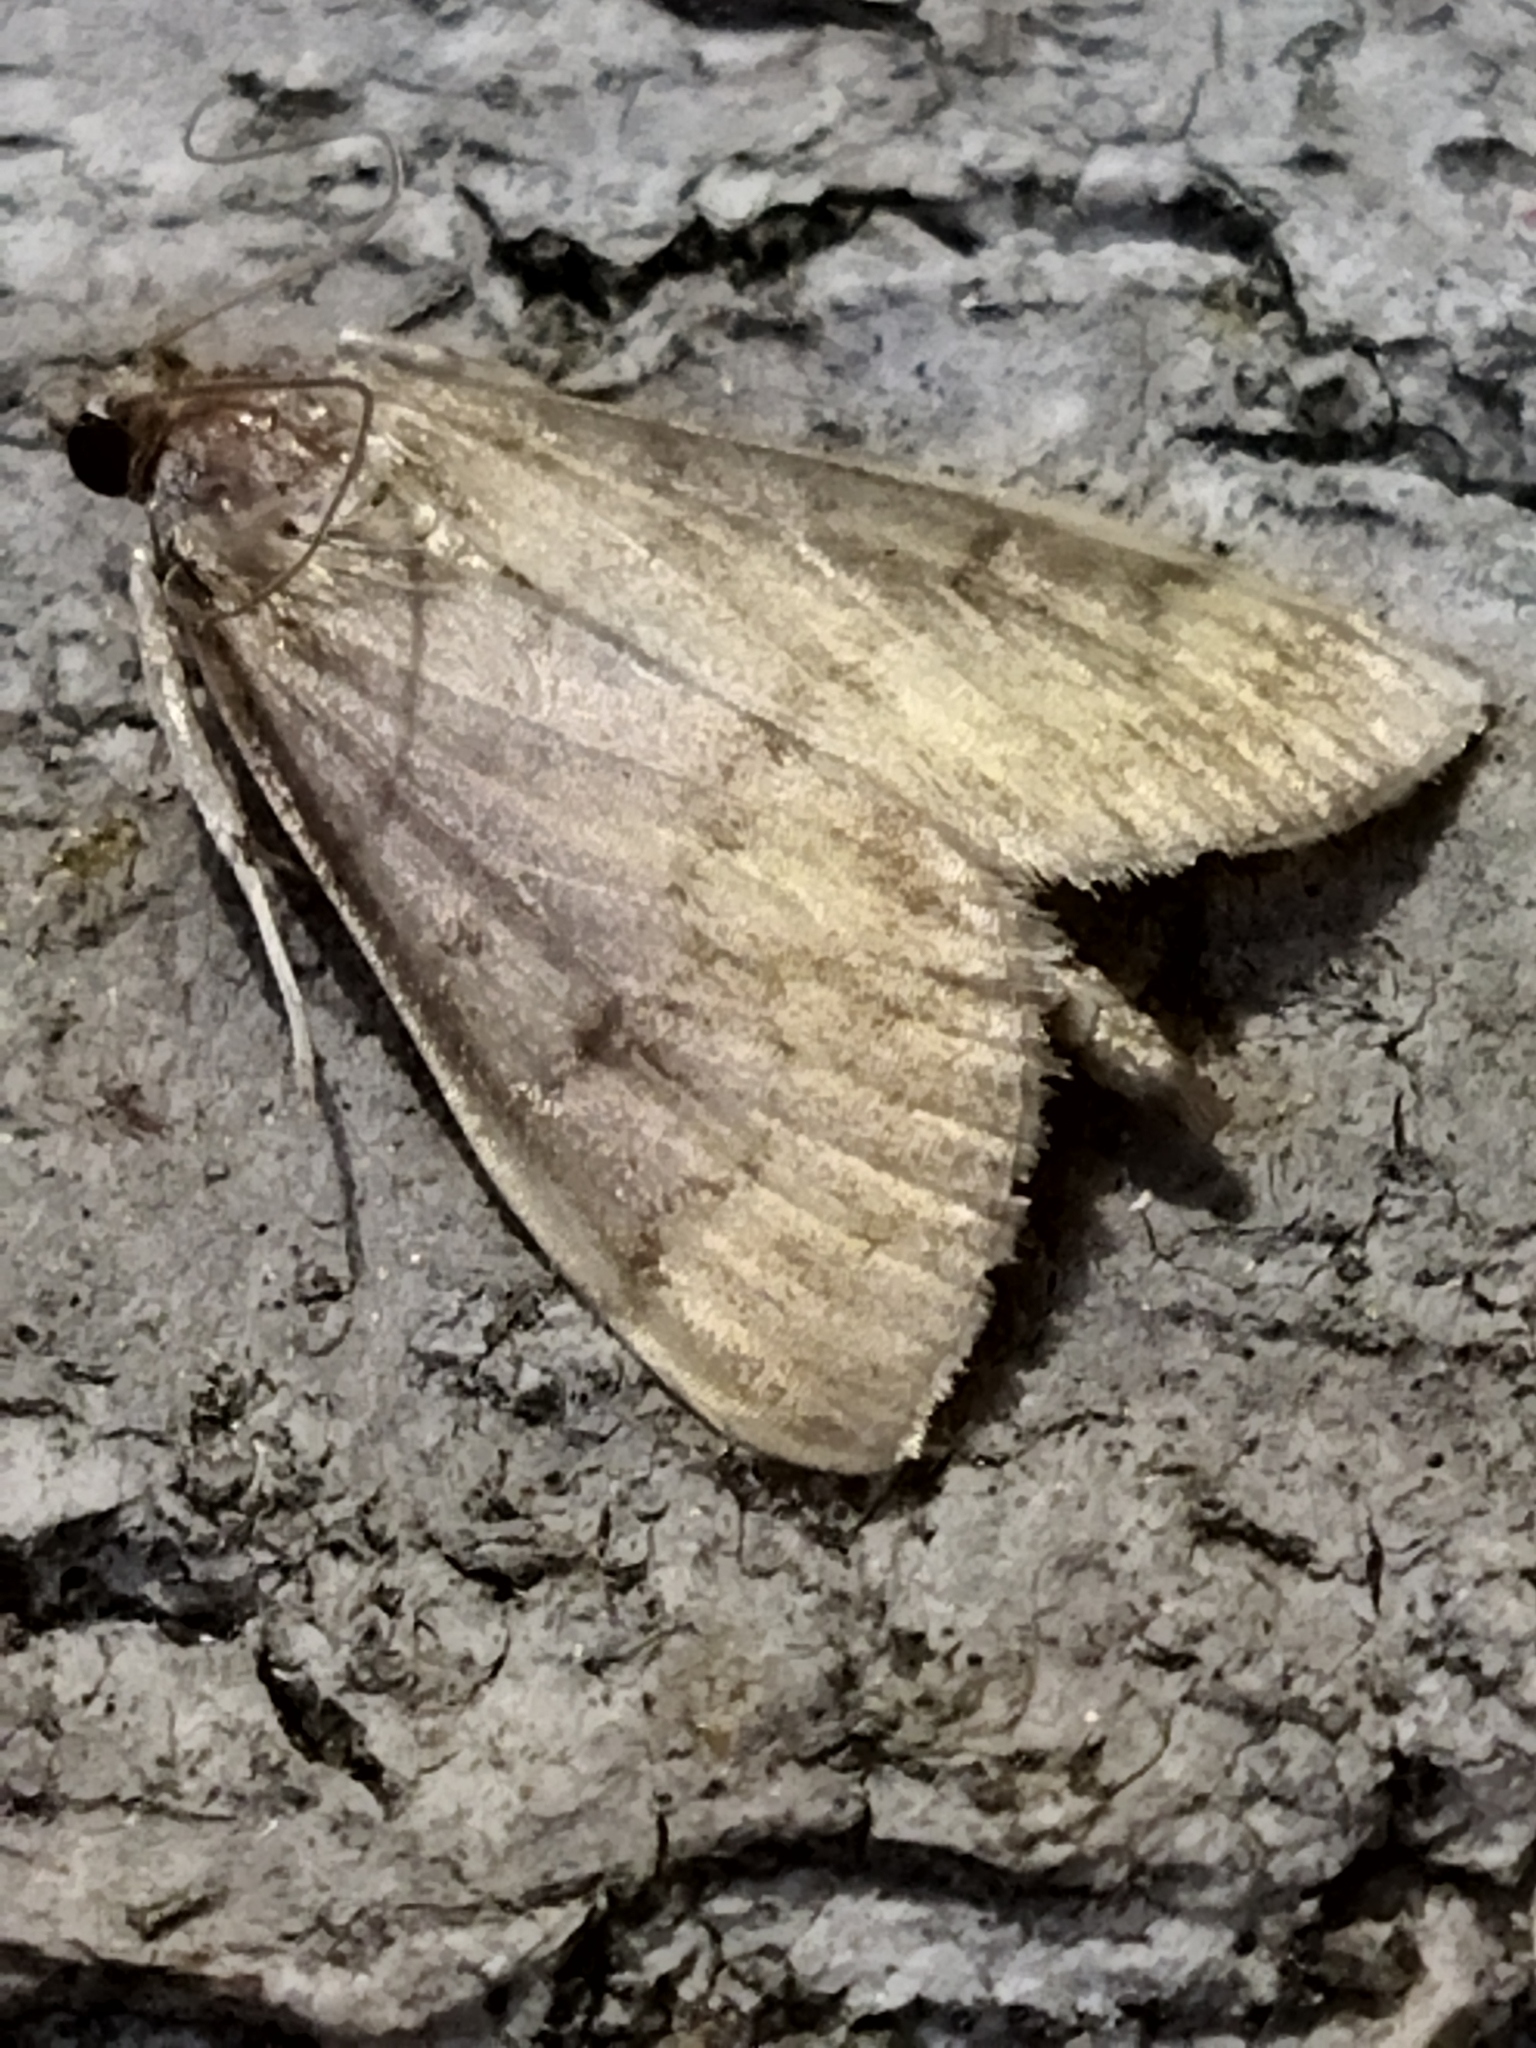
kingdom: Animalia
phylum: Arthropoda
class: Insecta
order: Lepidoptera
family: Crambidae
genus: Ostrinia
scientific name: Ostrinia nubilalis
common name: European corn borer
